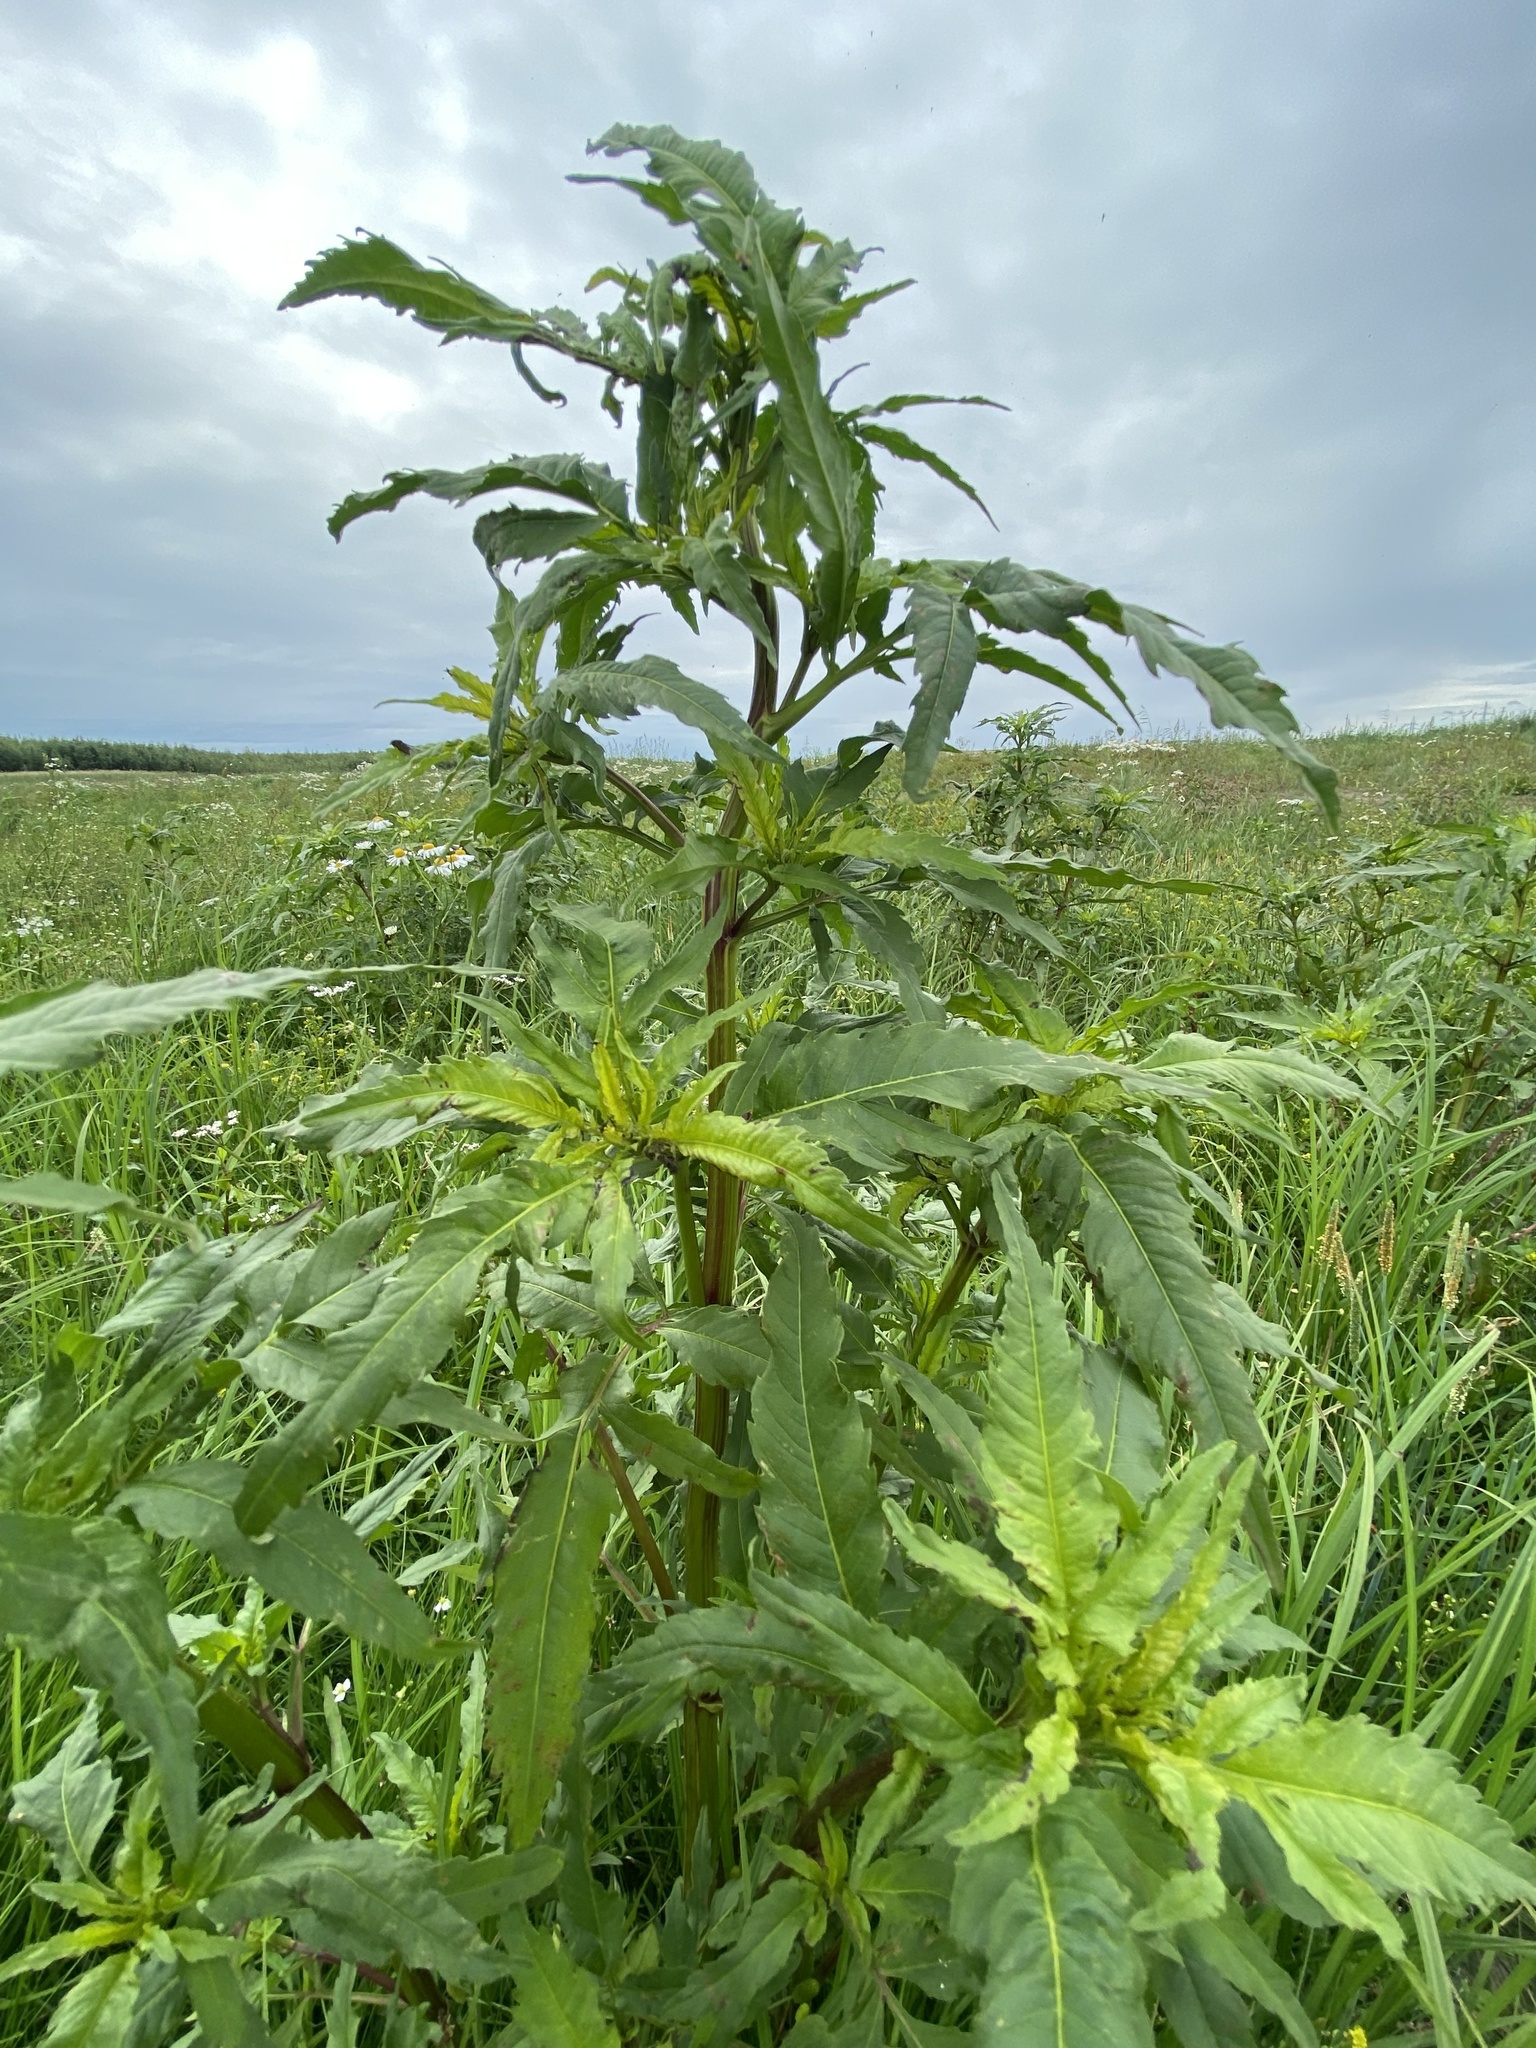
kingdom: Plantae
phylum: Tracheophyta
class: Magnoliopsida
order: Asterales
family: Asteraceae
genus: Bidens
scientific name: Bidens tripartita
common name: Trifid bur-marigold
